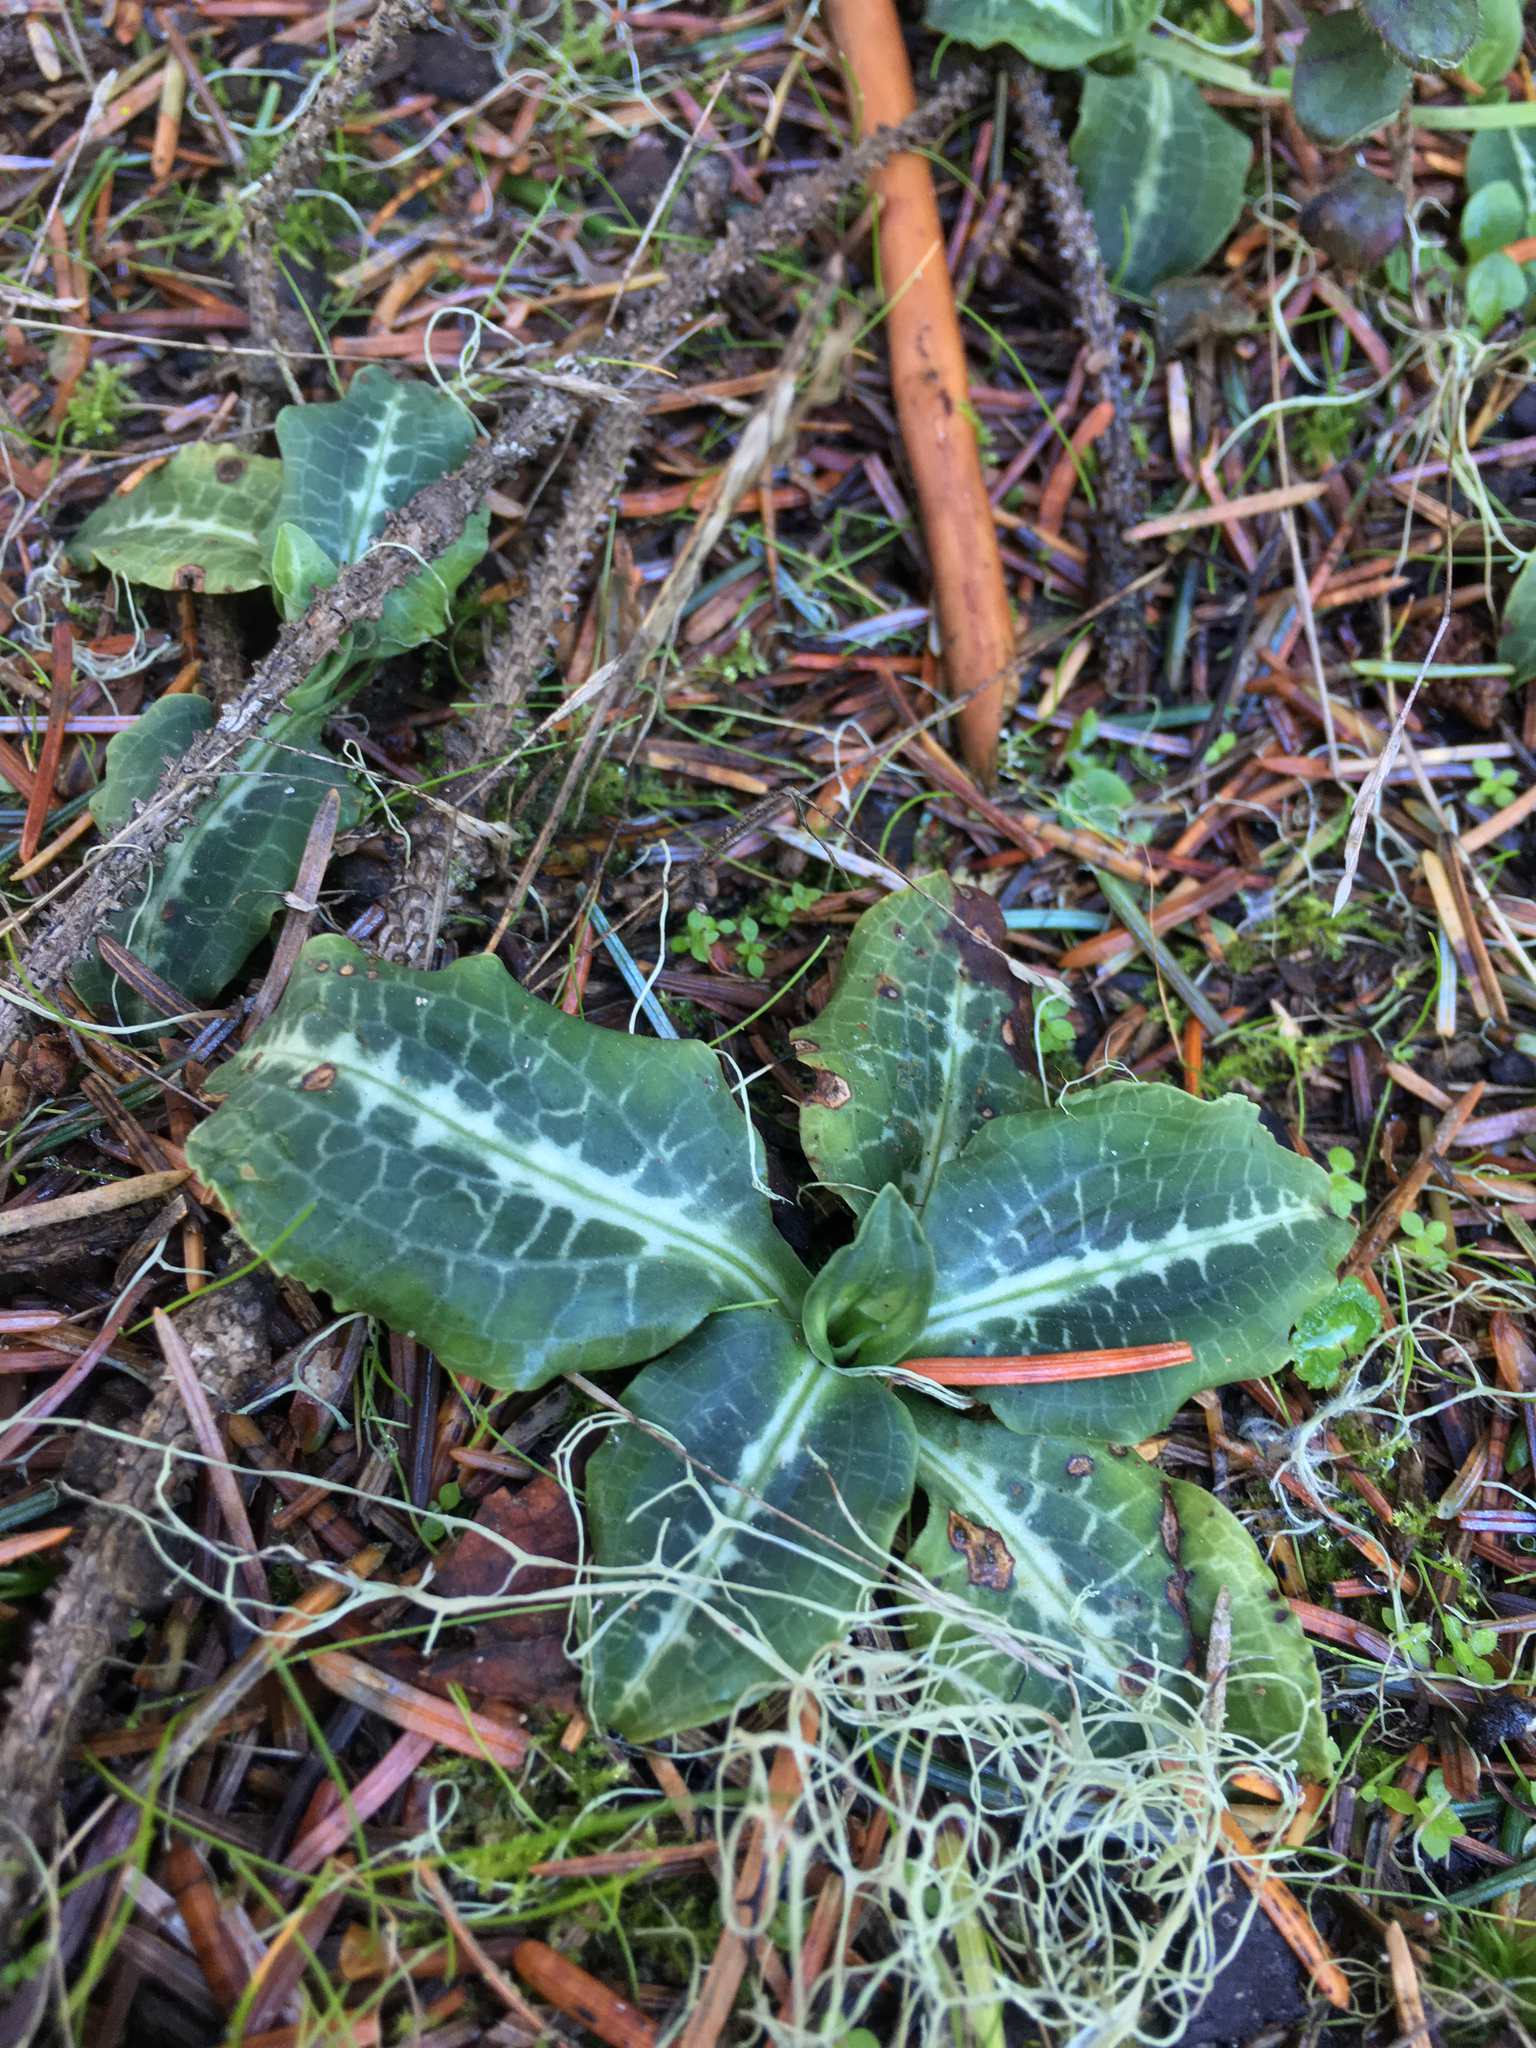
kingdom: Plantae
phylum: Tracheophyta
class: Liliopsida
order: Asparagales
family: Orchidaceae
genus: Goodyera
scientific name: Goodyera oblongifolia
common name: Giant rattlesnake-plantain
